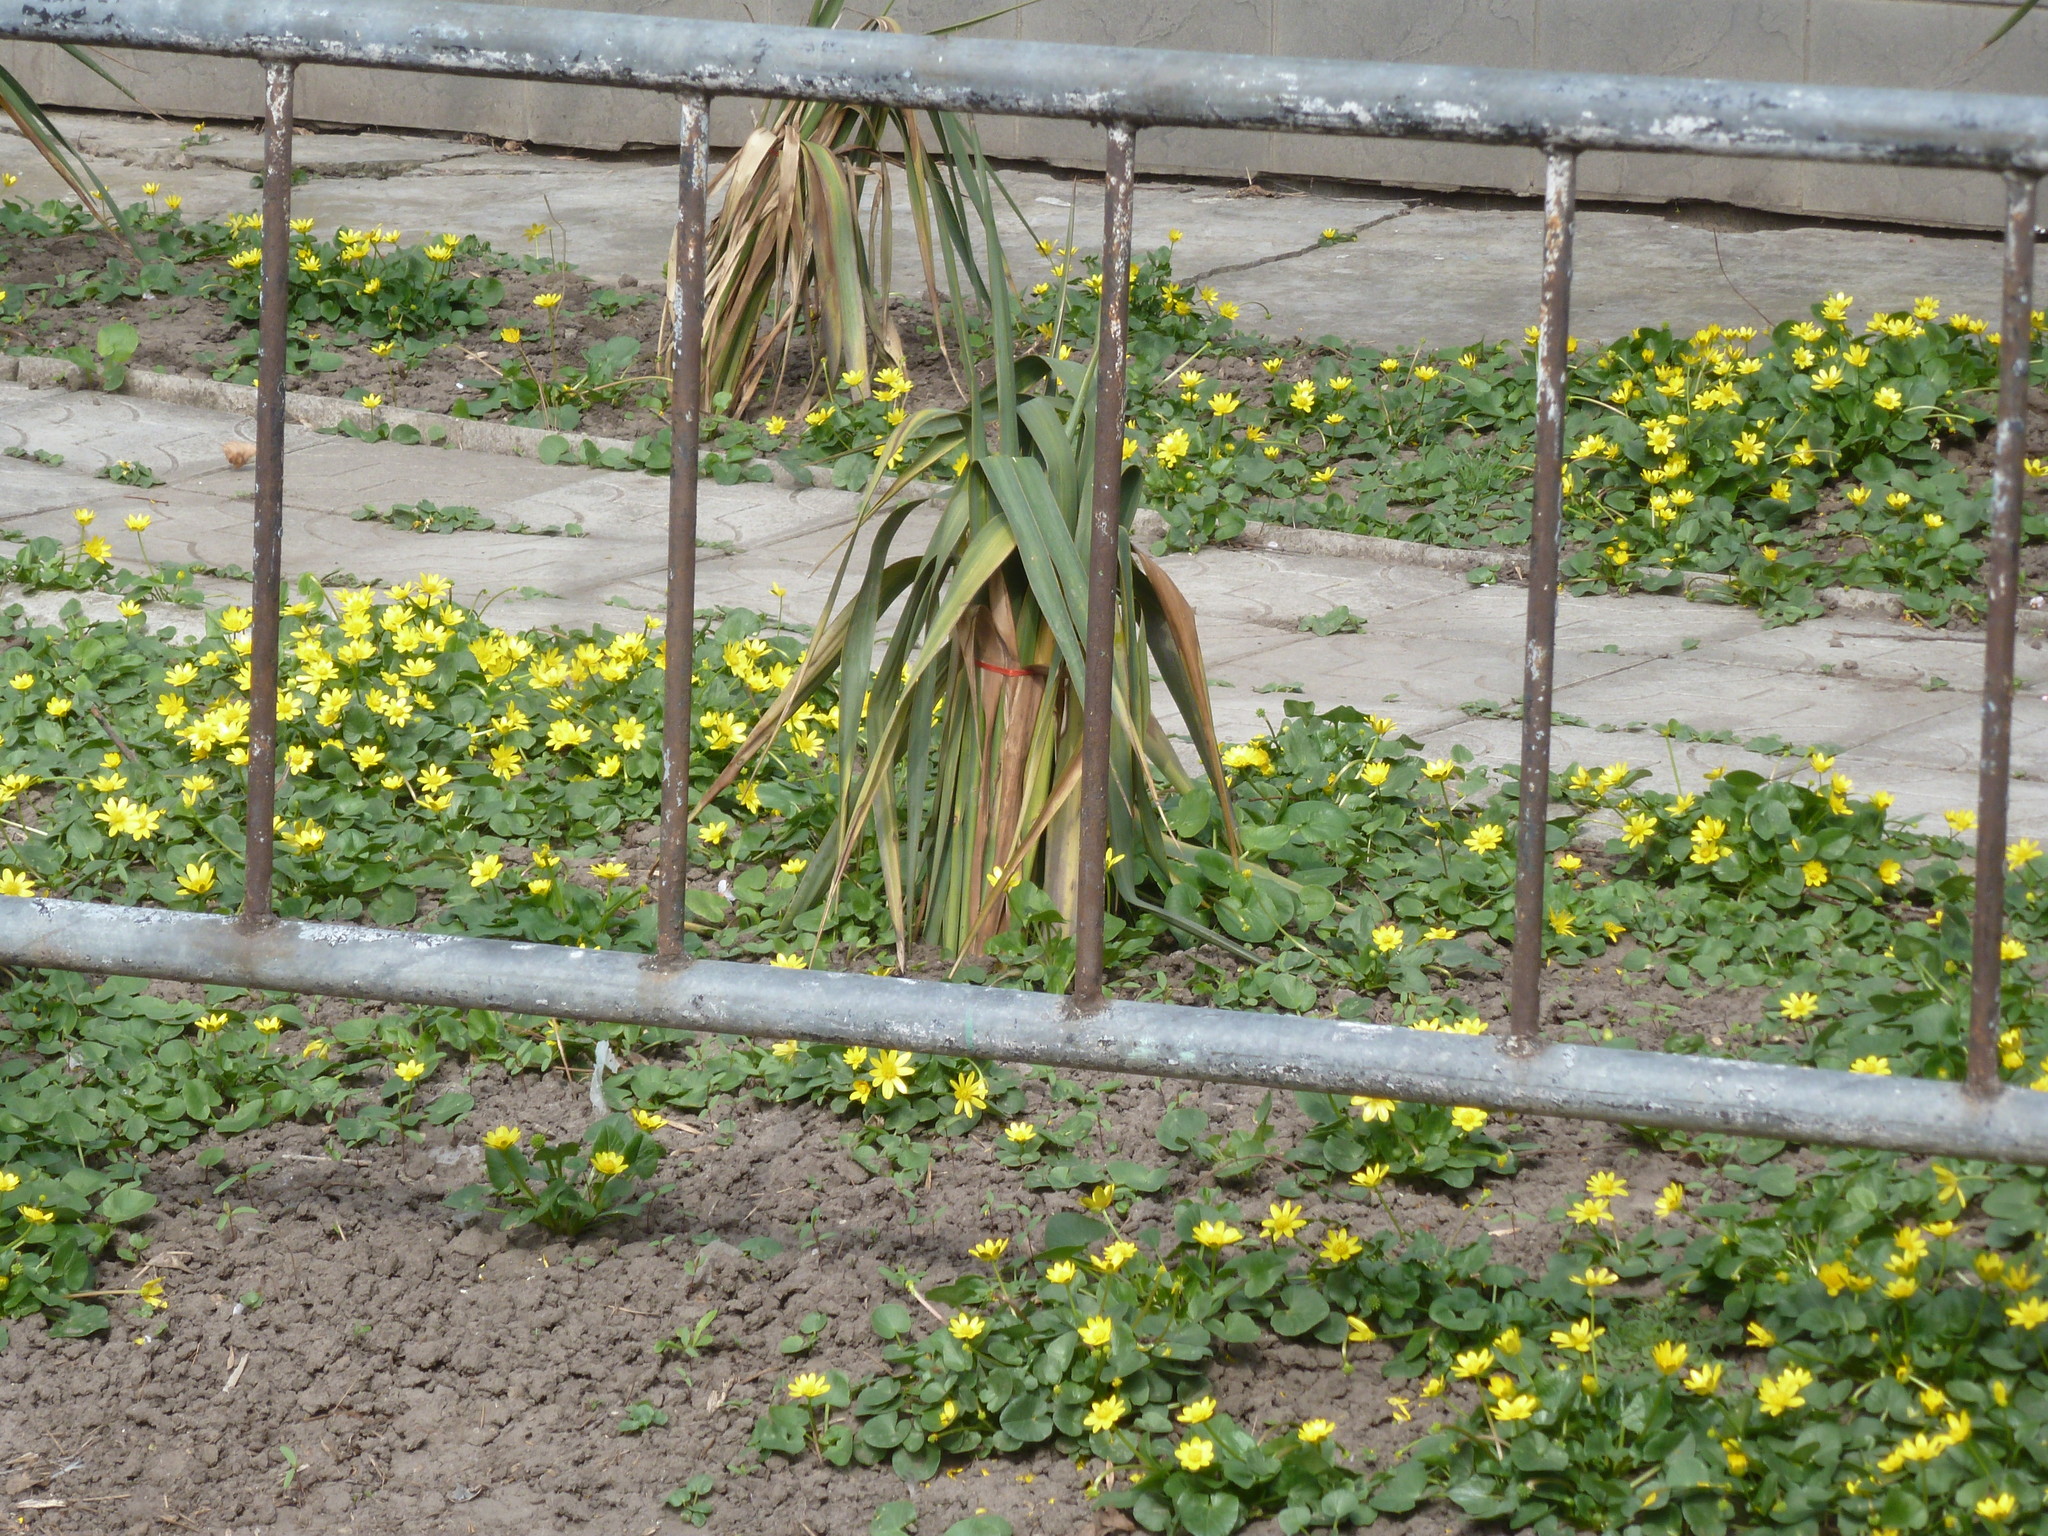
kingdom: Plantae
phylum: Tracheophyta
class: Magnoliopsida
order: Ranunculales
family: Ranunculaceae
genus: Ficaria
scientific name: Ficaria verna
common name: Lesser celandine
